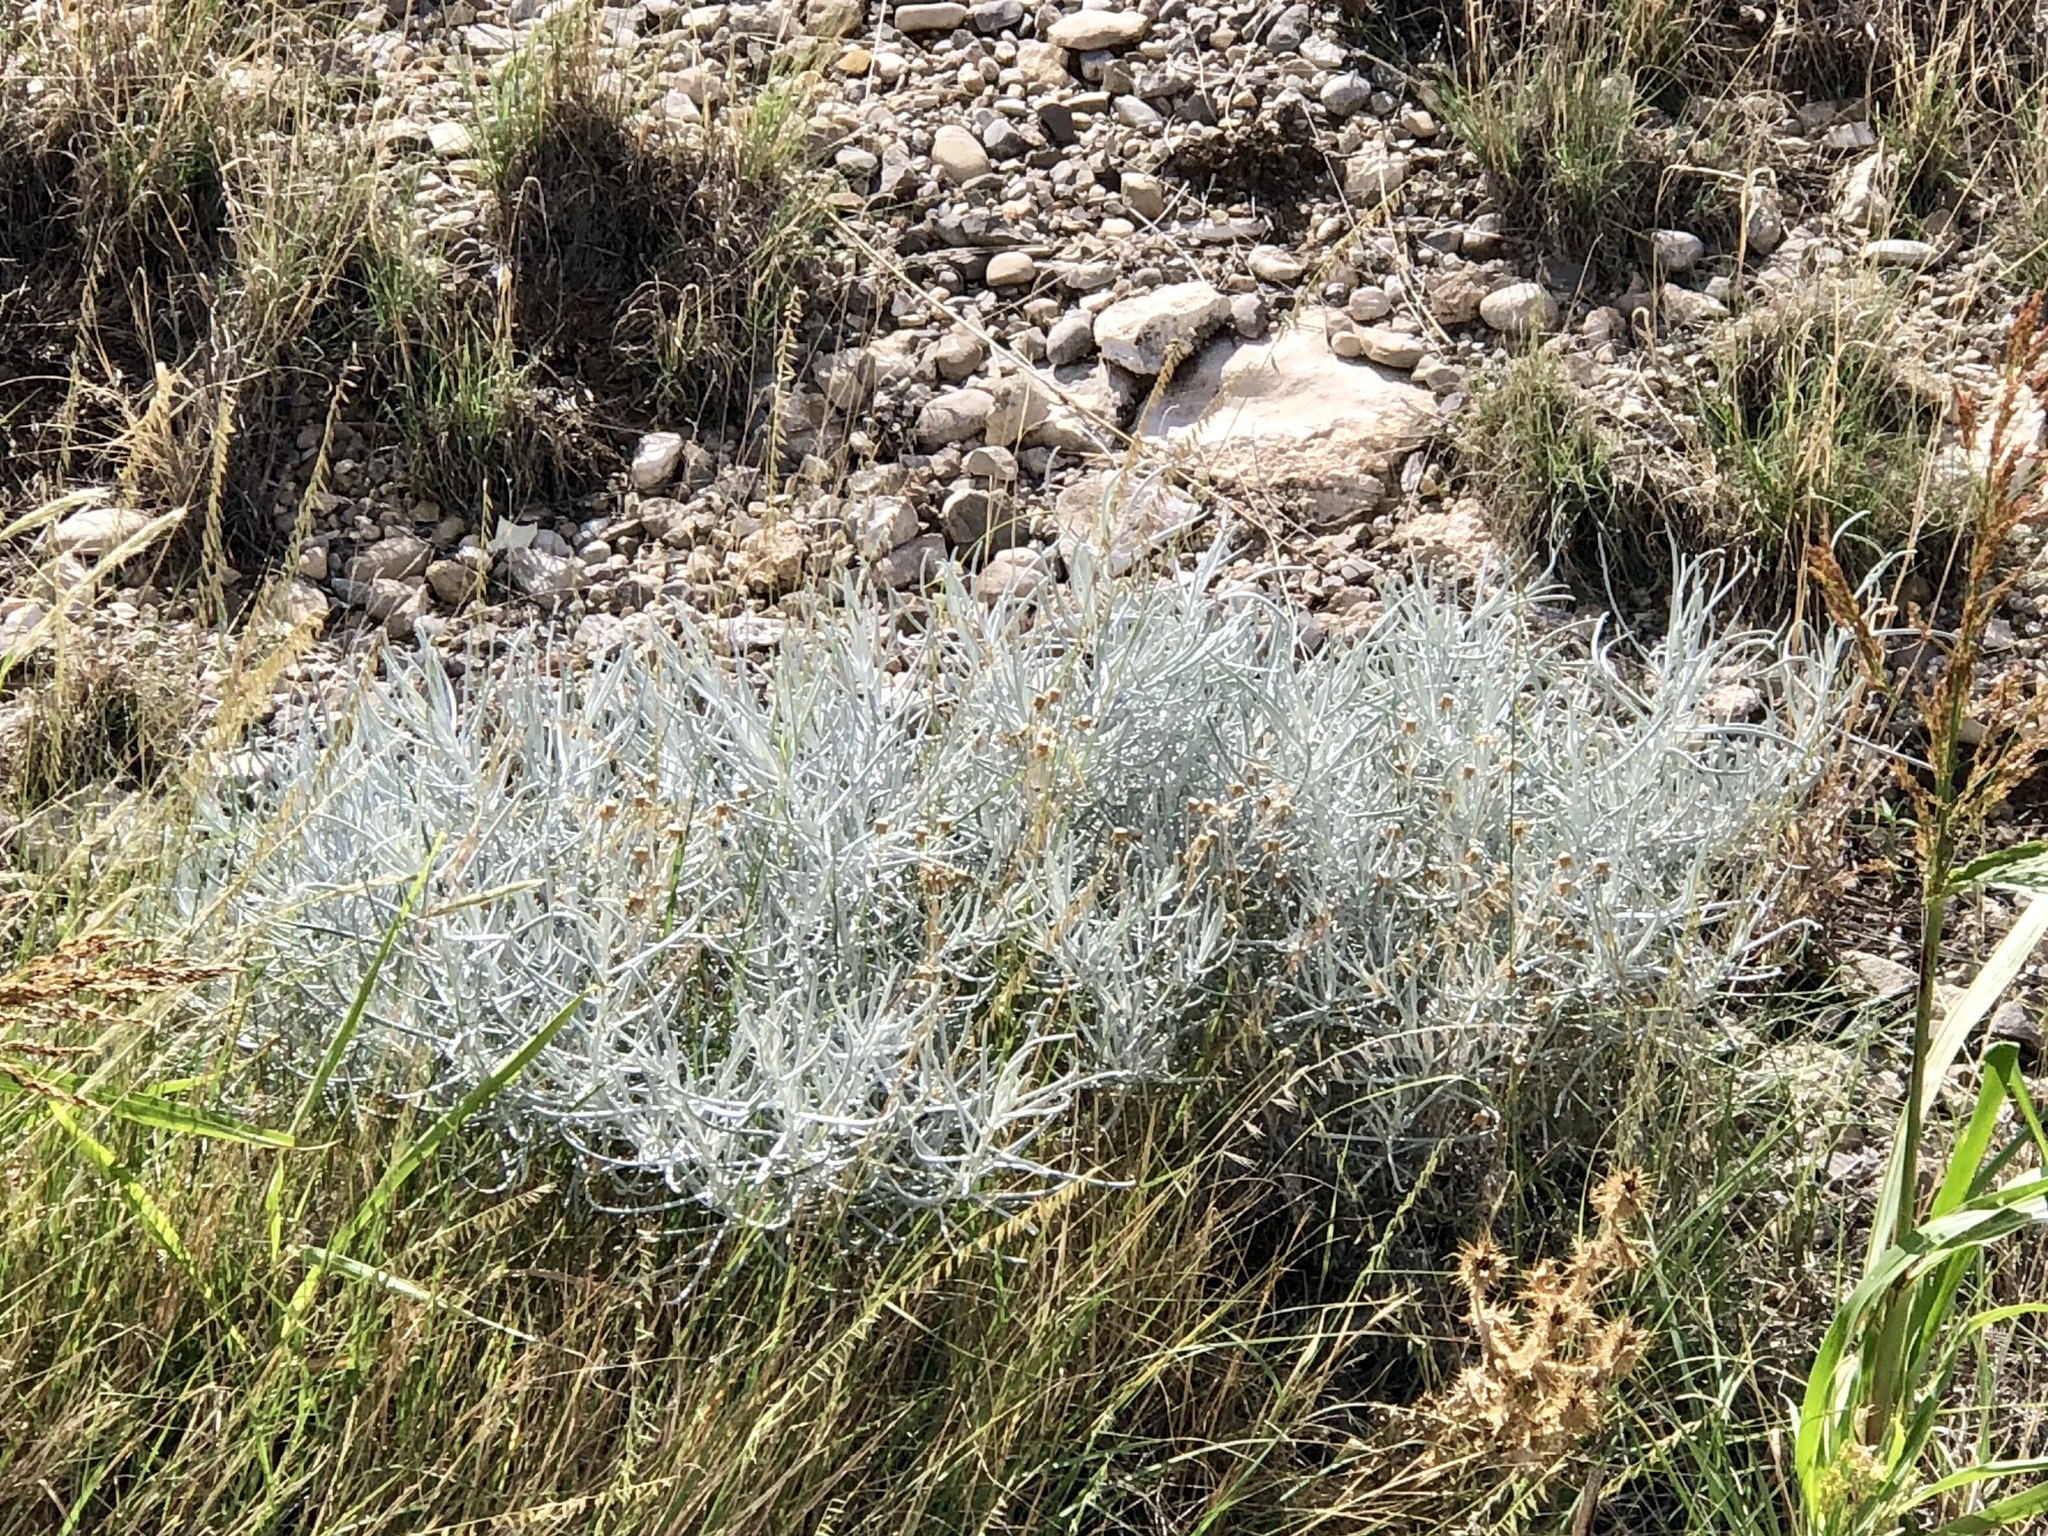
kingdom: Plantae
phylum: Tracheophyta
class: Magnoliopsida
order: Asterales
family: Asteraceae
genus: Senecio
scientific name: Senecio flaccidus
